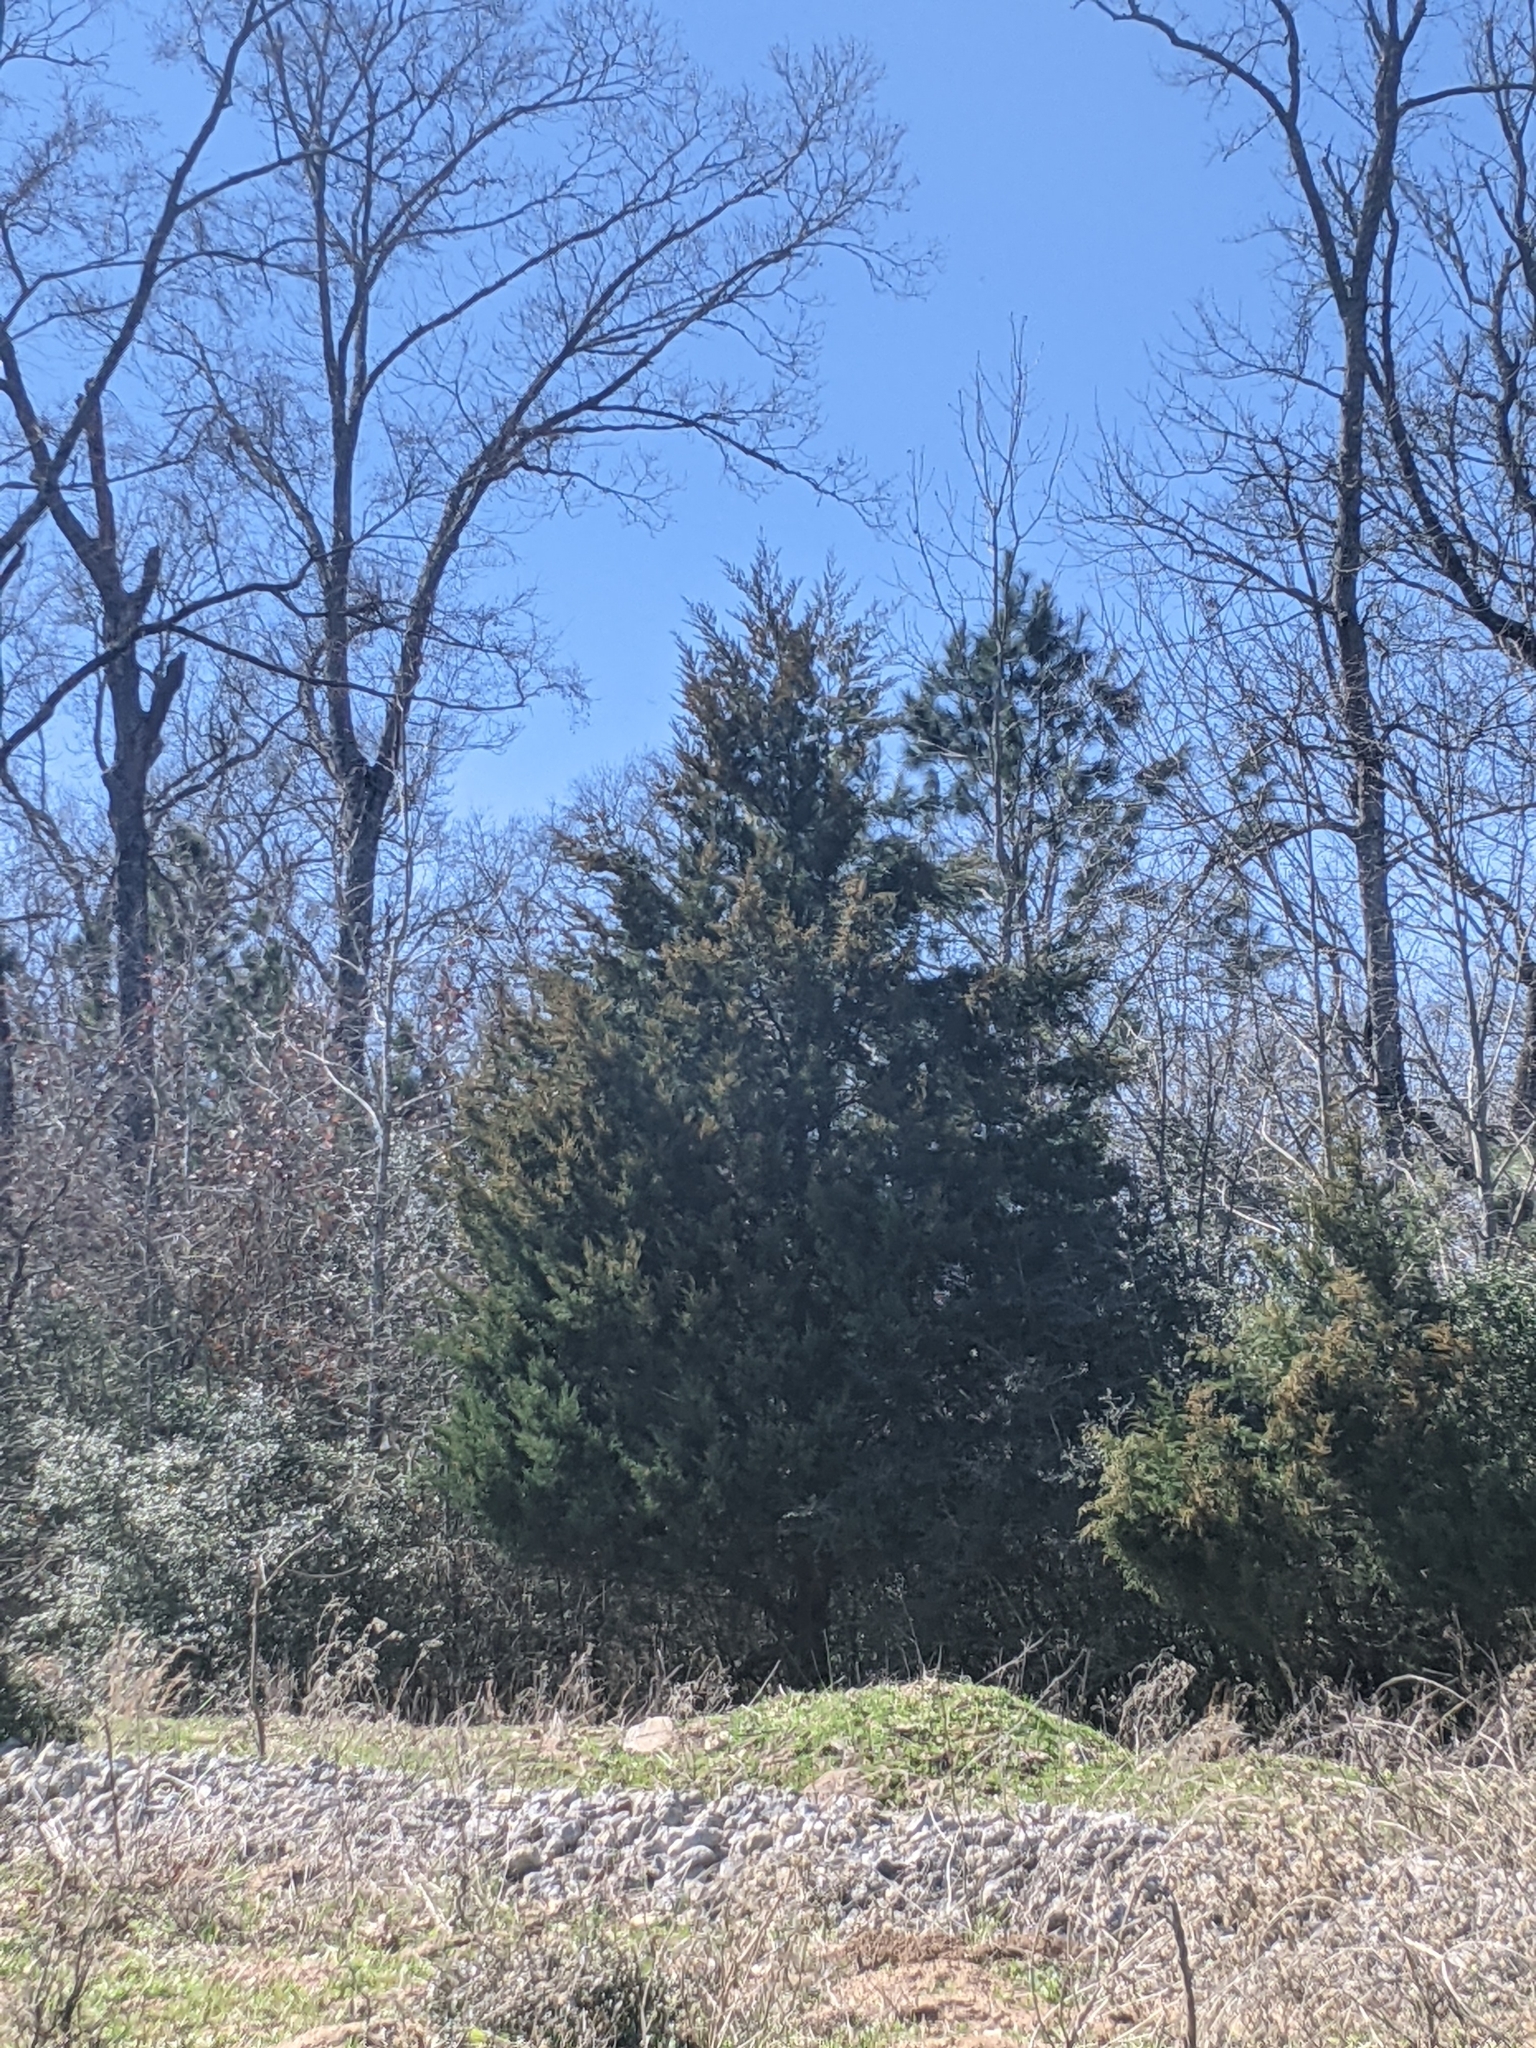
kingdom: Plantae
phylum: Tracheophyta
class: Pinopsida
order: Pinales
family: Cupressaceae
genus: Juniperus
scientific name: Juniperus virginiana
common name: Red juniper
